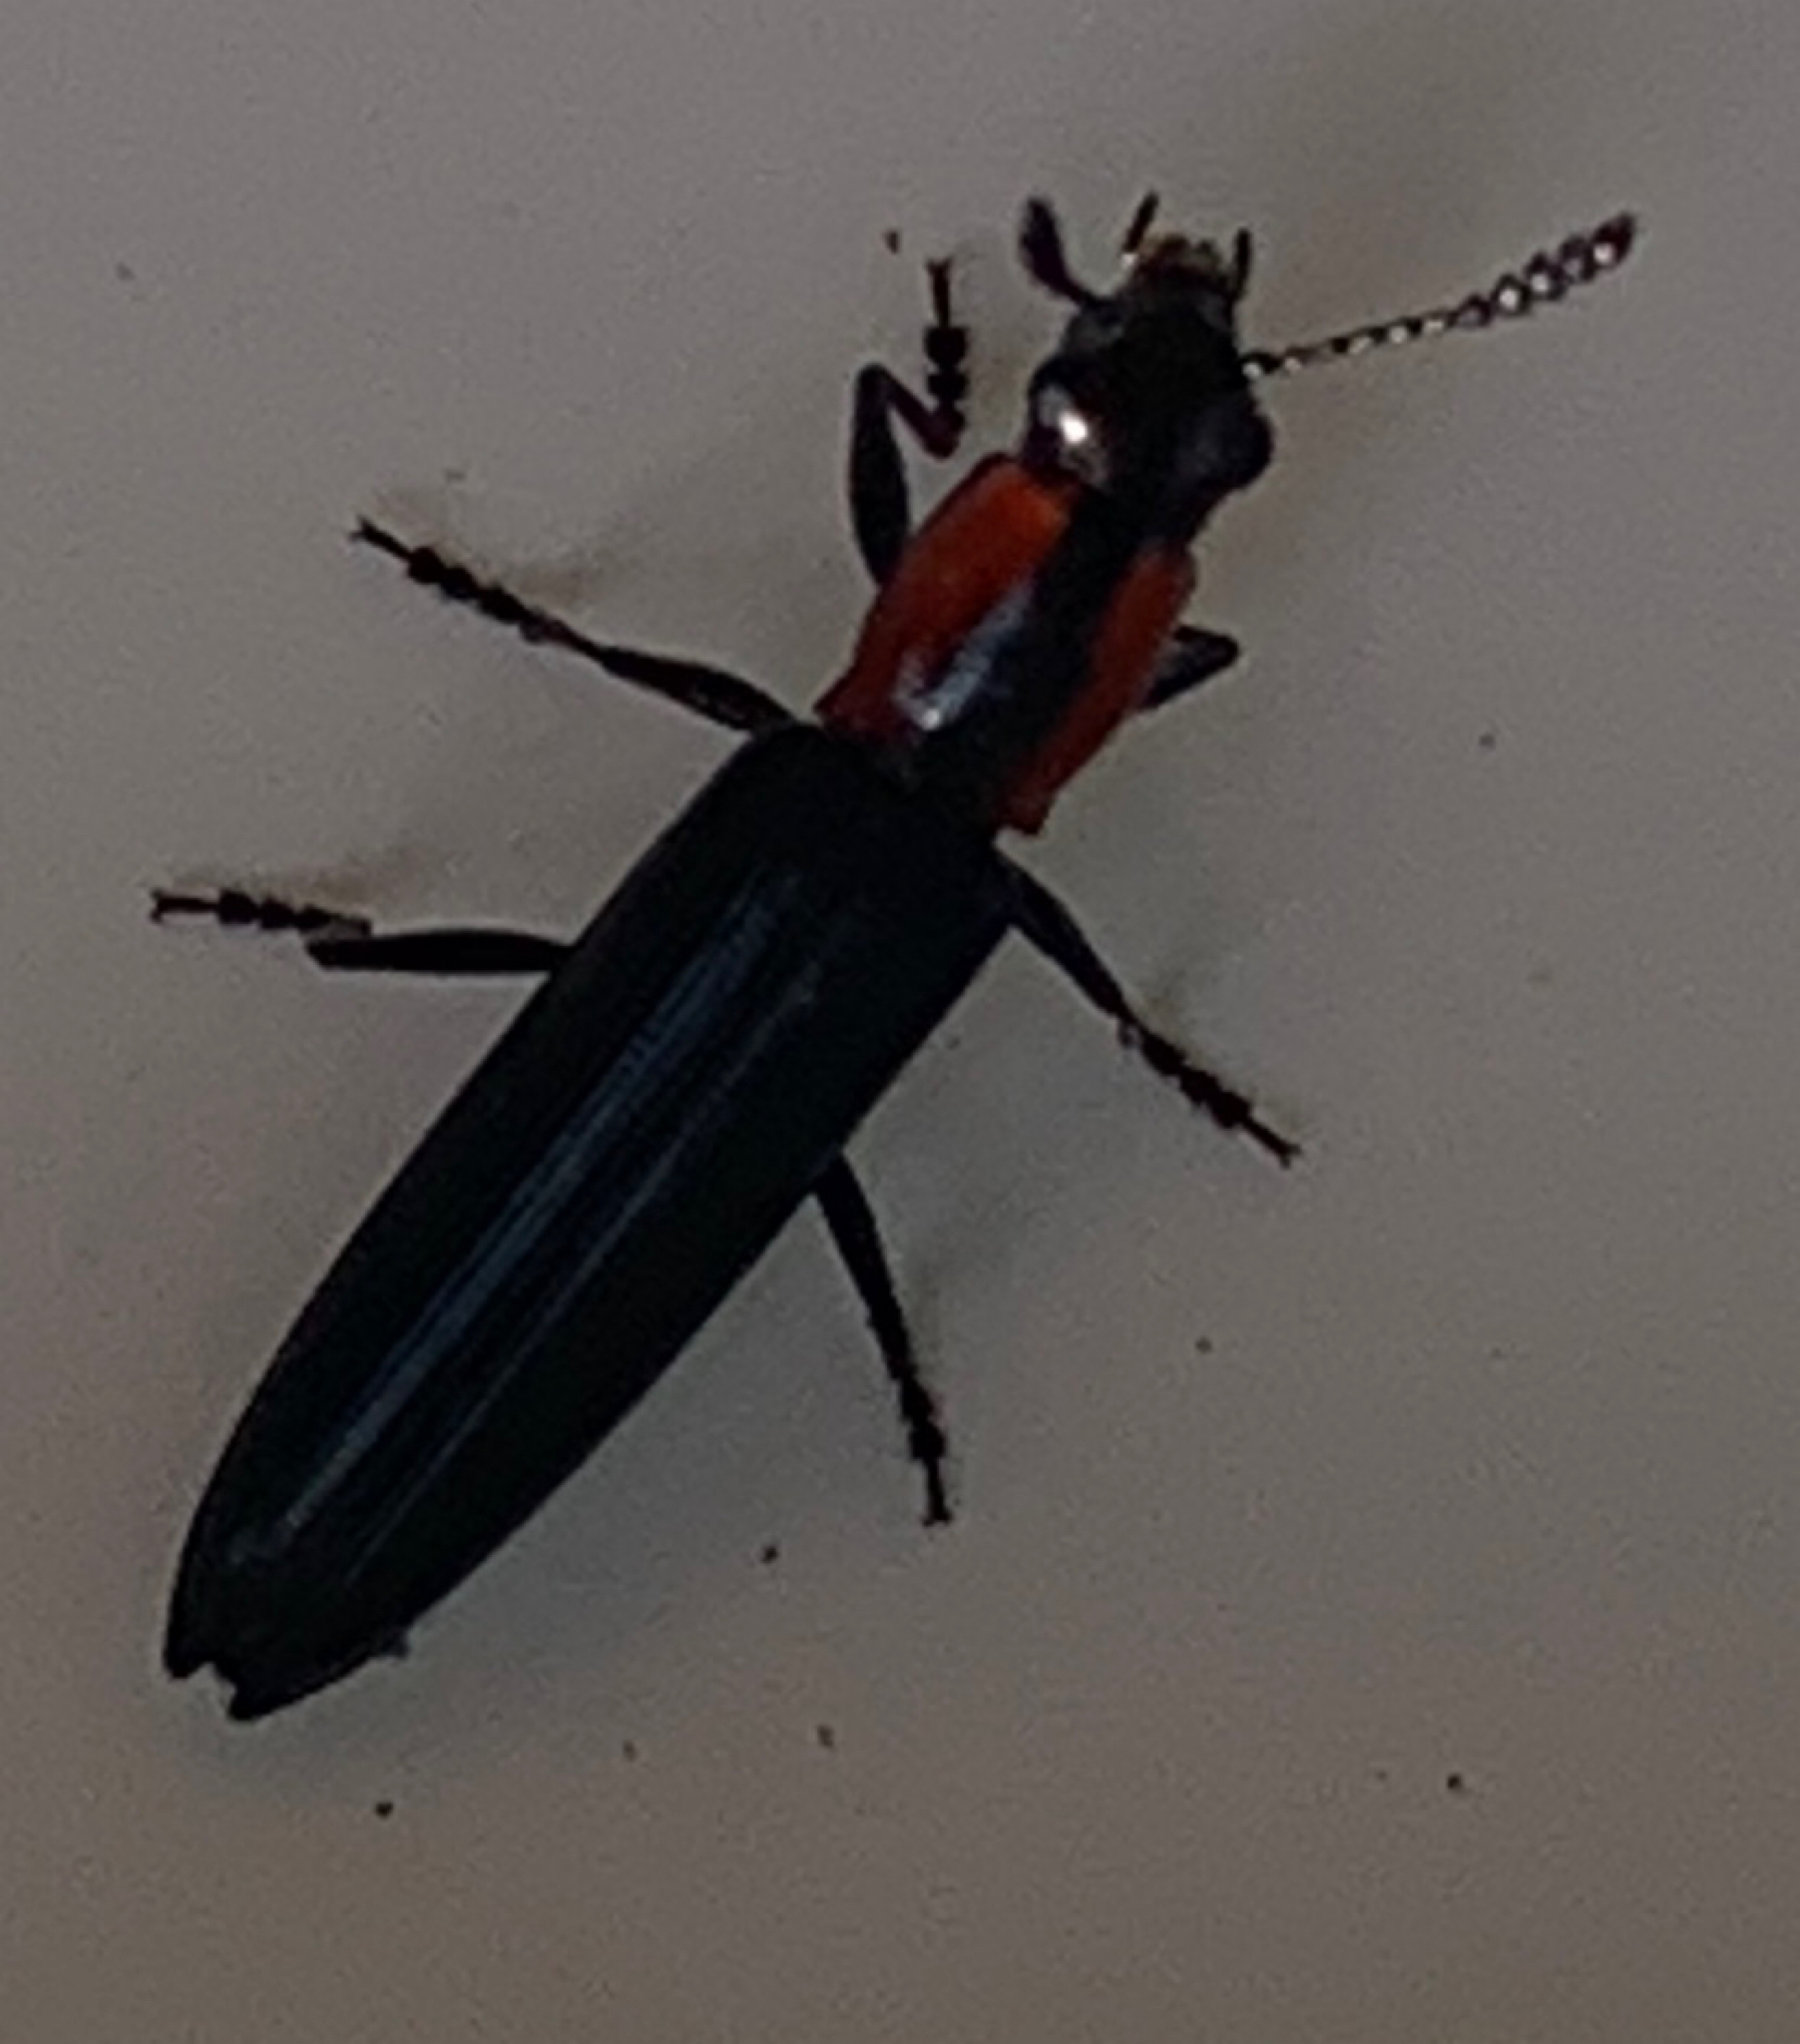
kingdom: Animalia
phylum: Arthropoda
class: Insecta
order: Coleoptera
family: Erotylidae
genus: Acropteroxys
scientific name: Acropteroxys gracilis
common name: Slender lizard beetle
